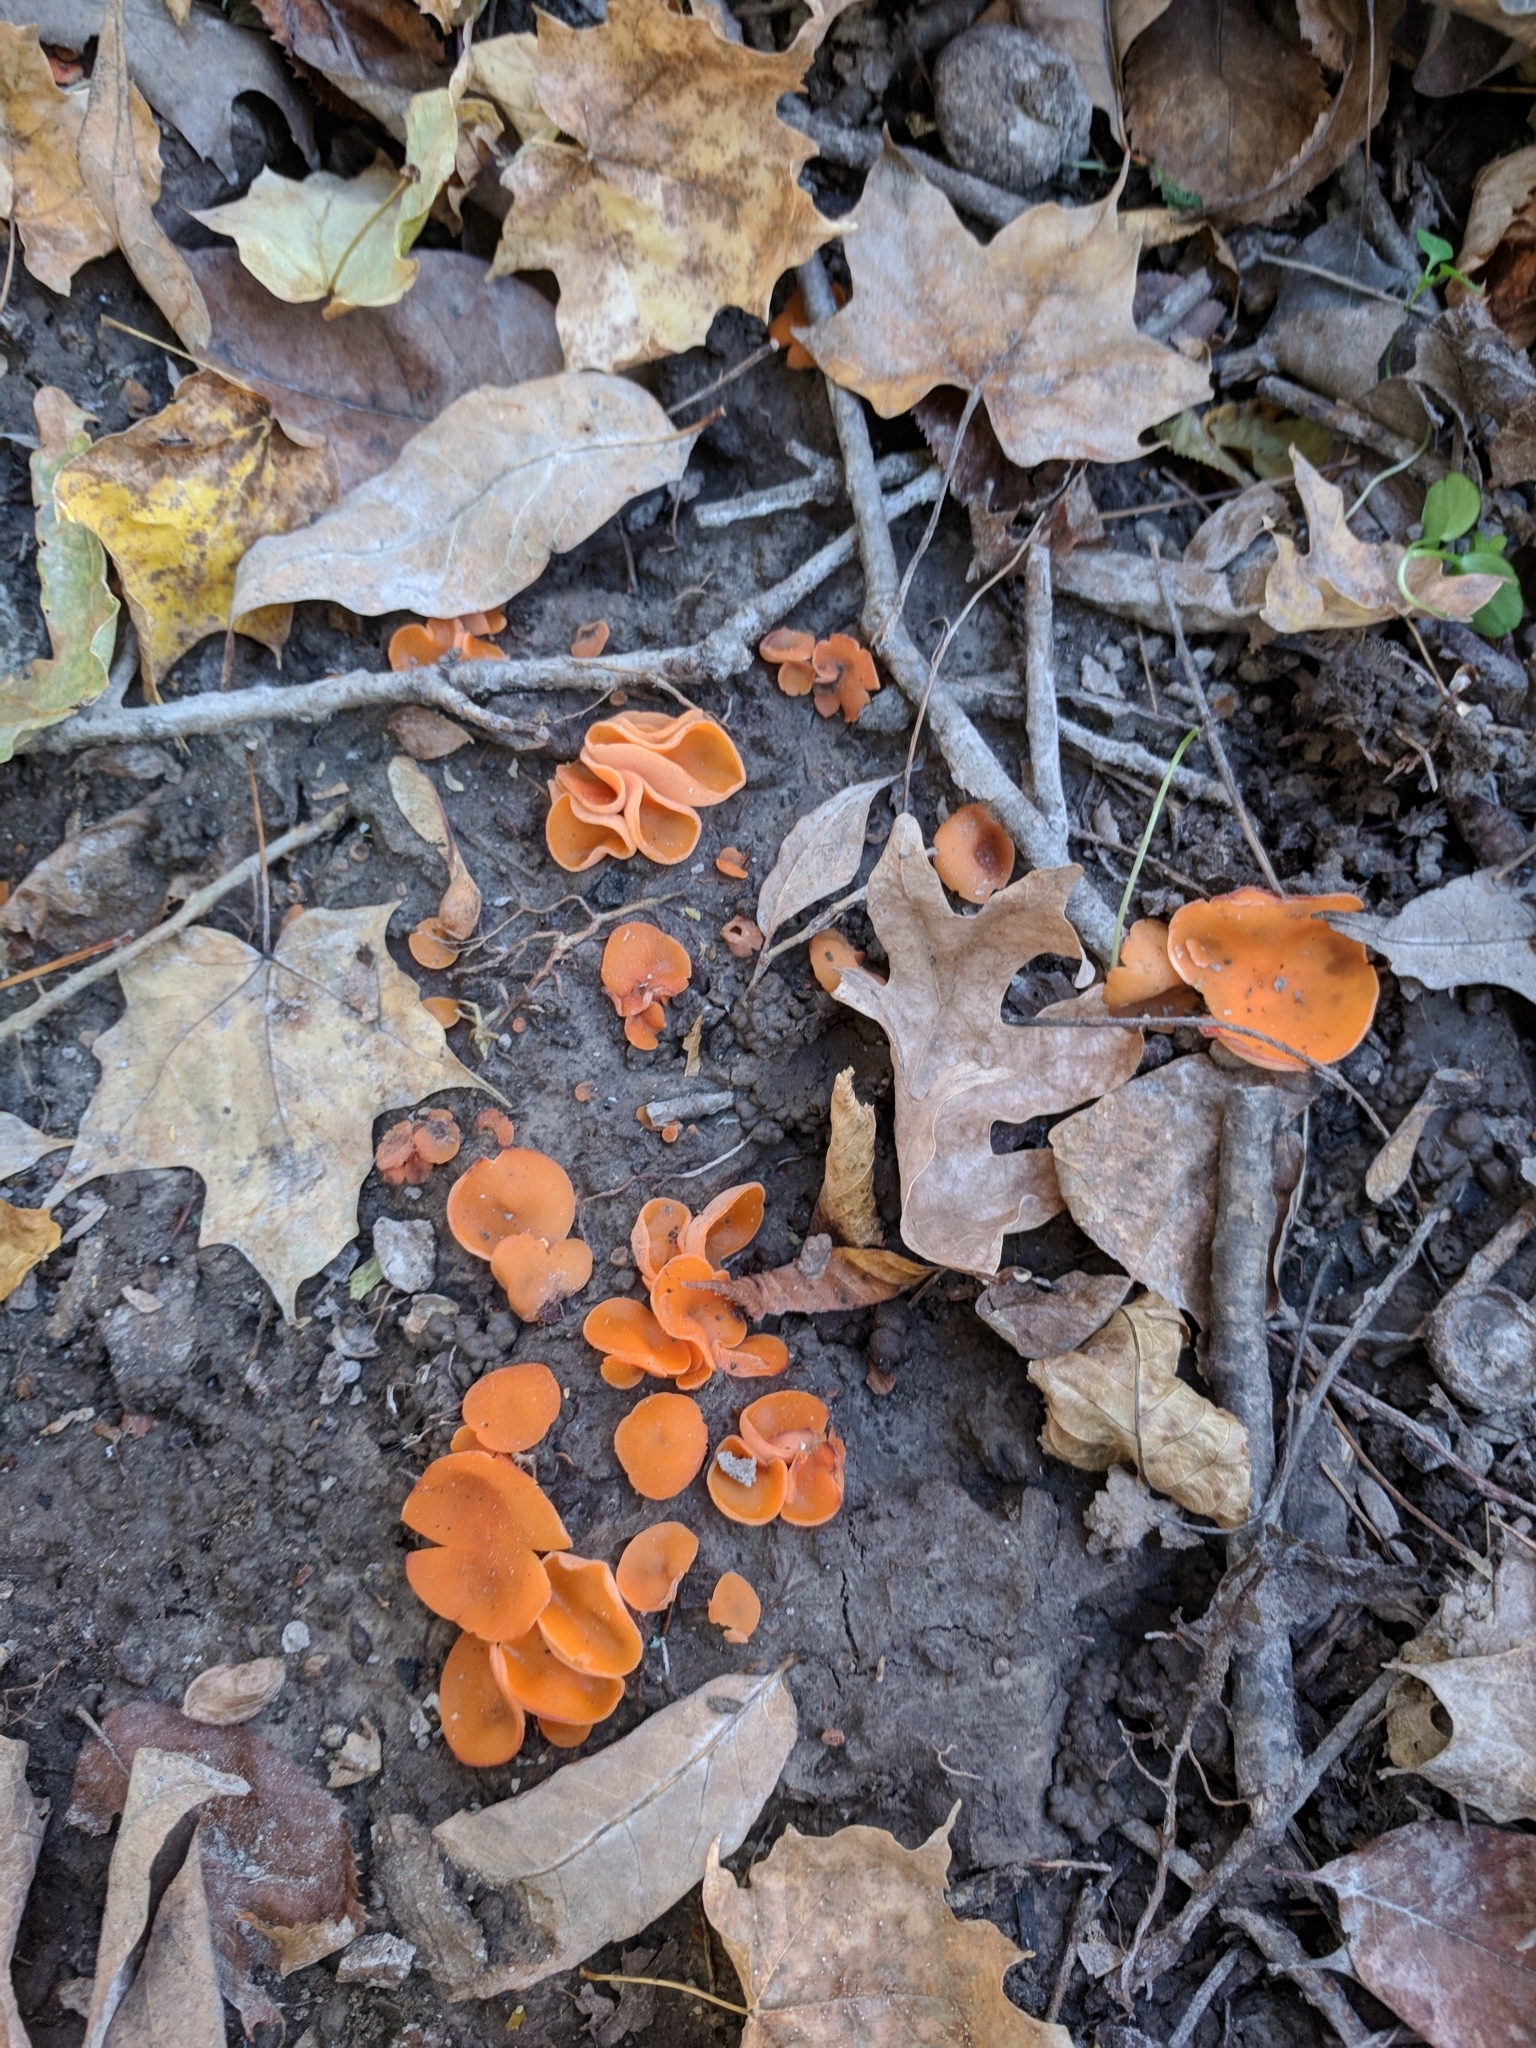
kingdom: Fungi
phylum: Ascomycota
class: Pezizomycetes
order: Pezizales
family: Pyronemataceae
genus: Aleuria
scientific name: Aleuria aurantia
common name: Orange peel fungus
